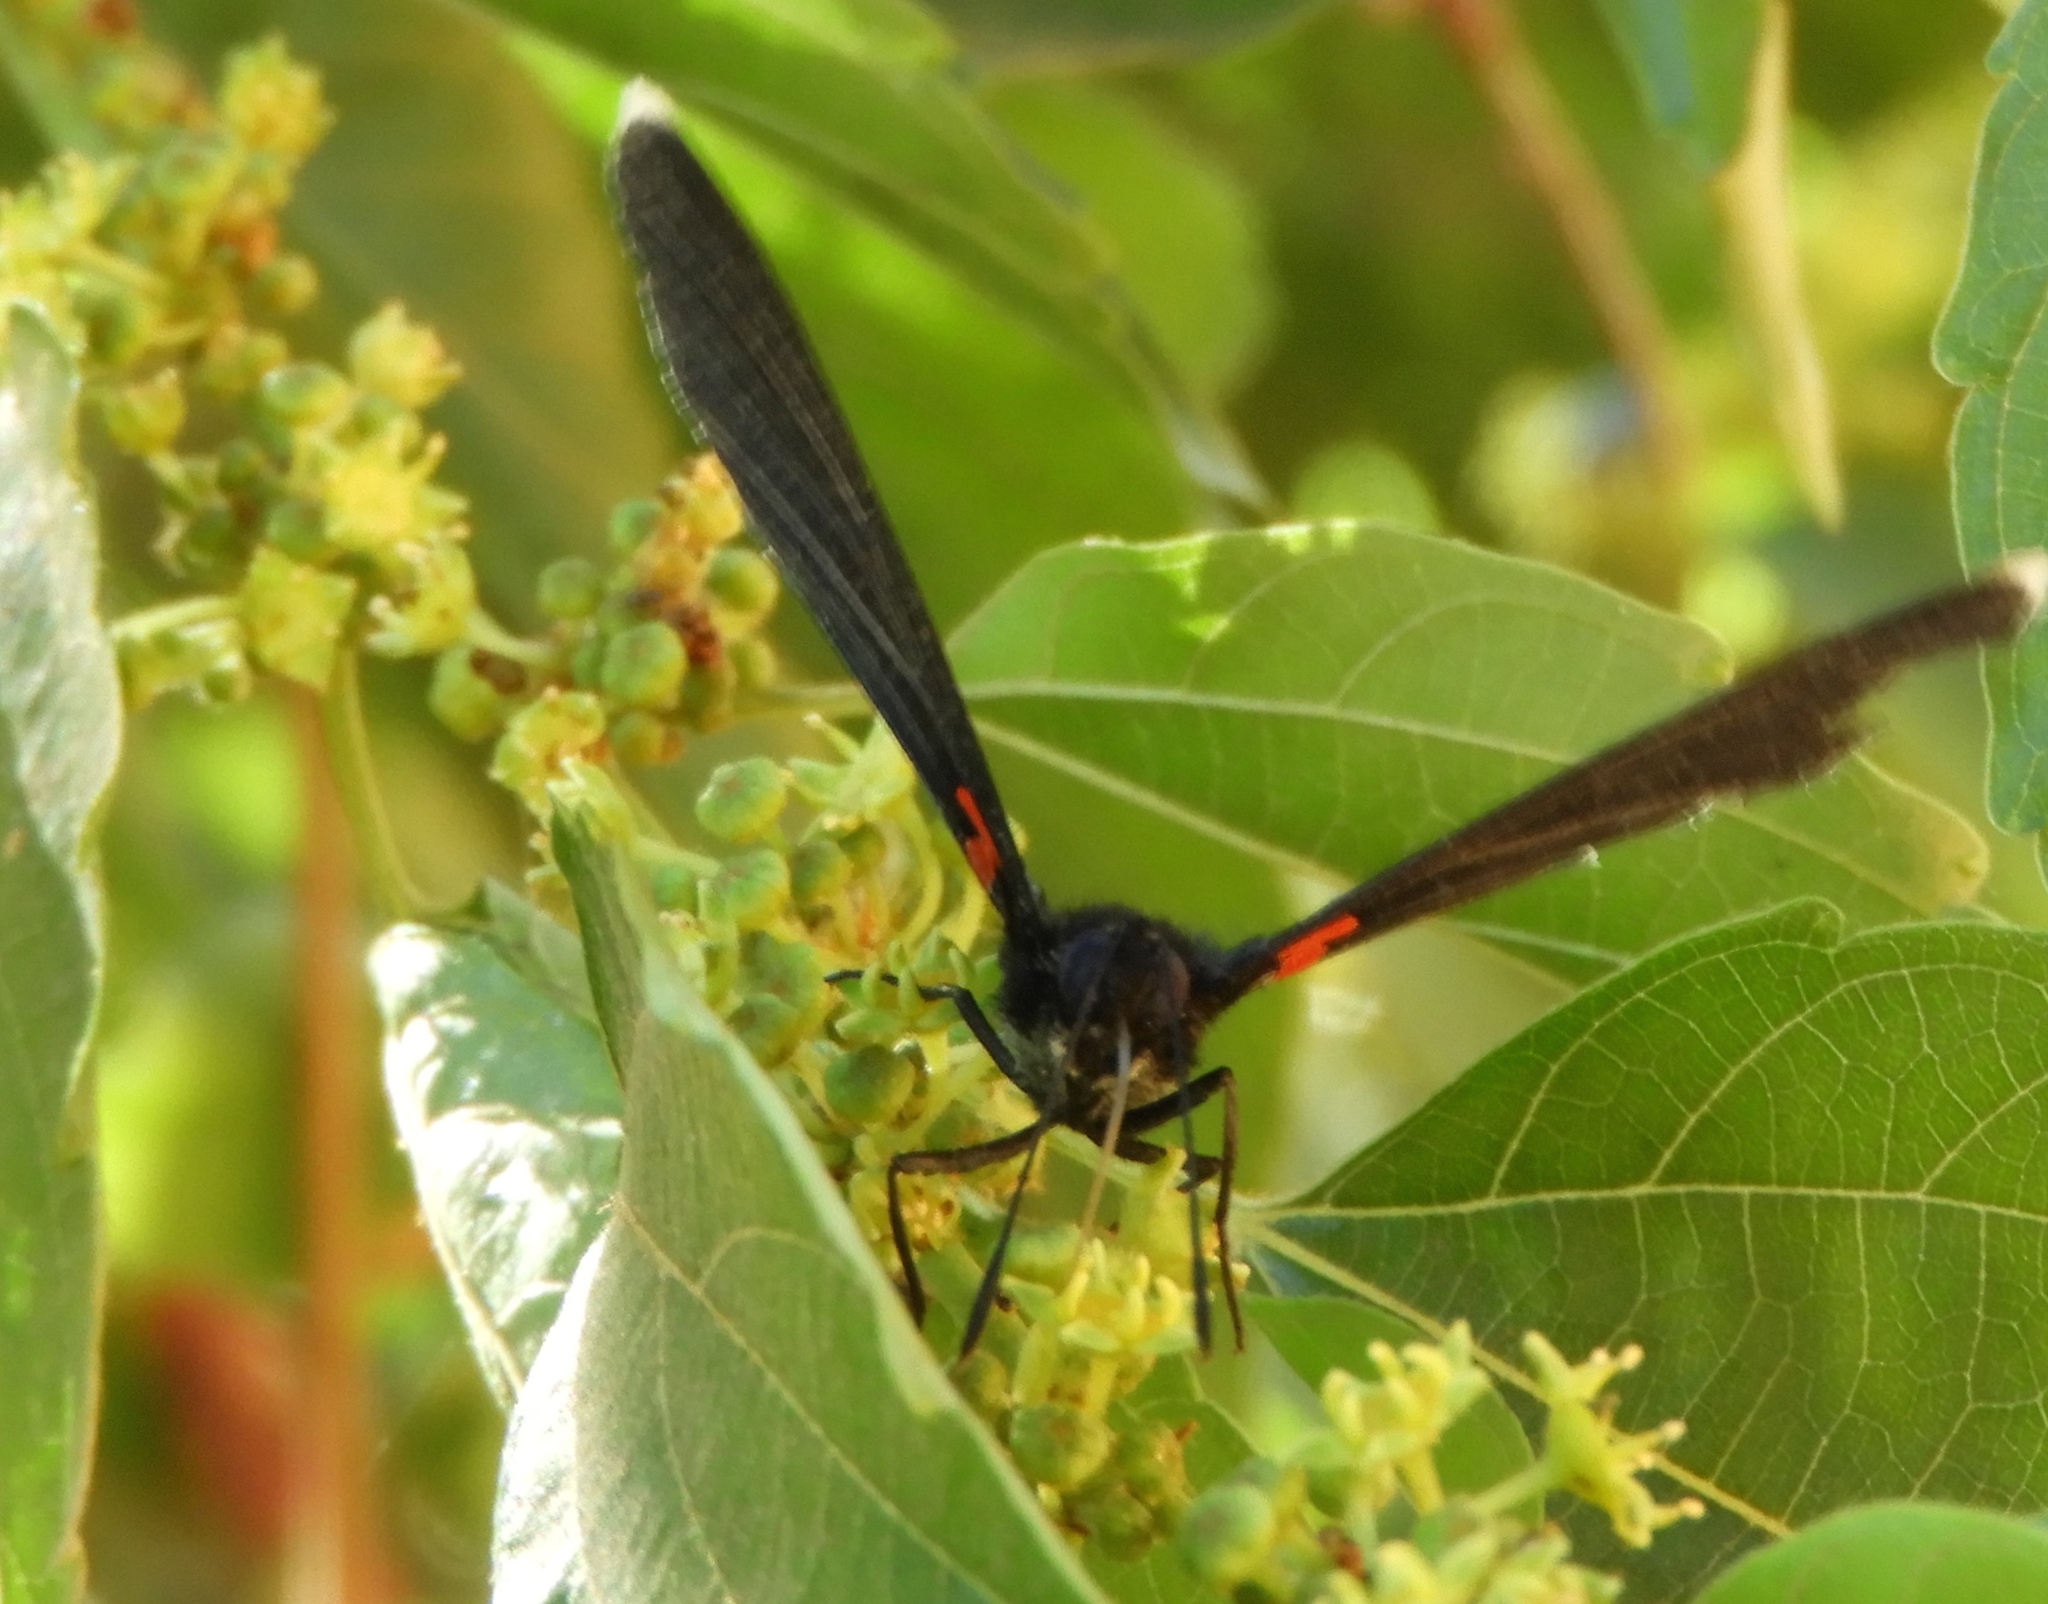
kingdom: Animalia
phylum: Arthropoda
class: Insecta
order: Lepidoptera
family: Lycaenidae
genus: Melanis
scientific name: Melanis
